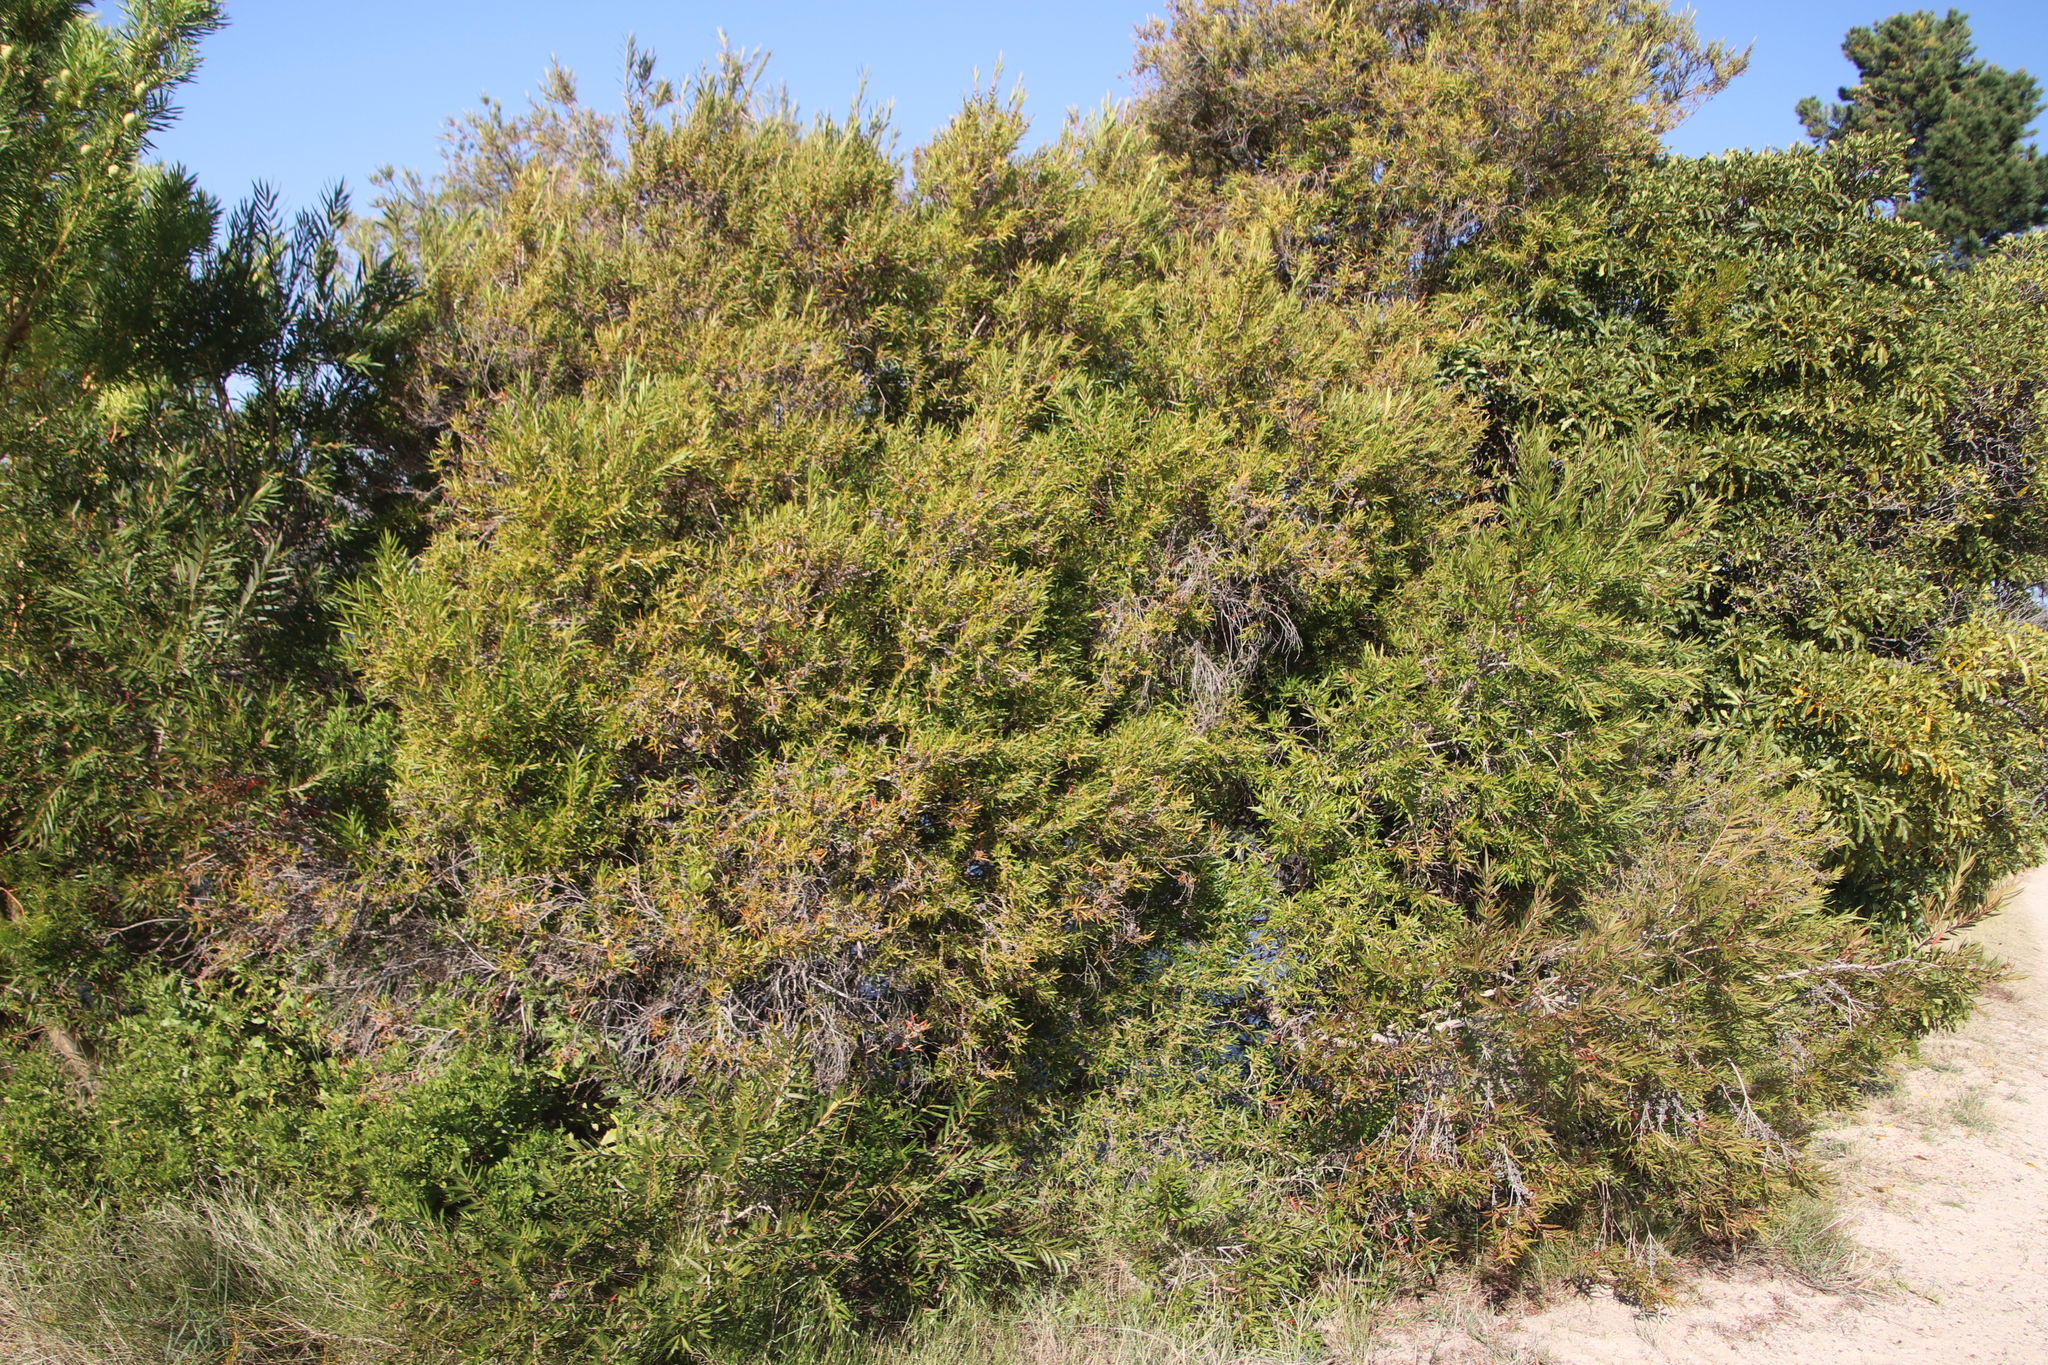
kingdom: Plantae
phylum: Tracheophyta
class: Magnoliopsida
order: Myrtales
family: Myrtaceae
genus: Callistemon
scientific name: Callistemon lanceolatus
